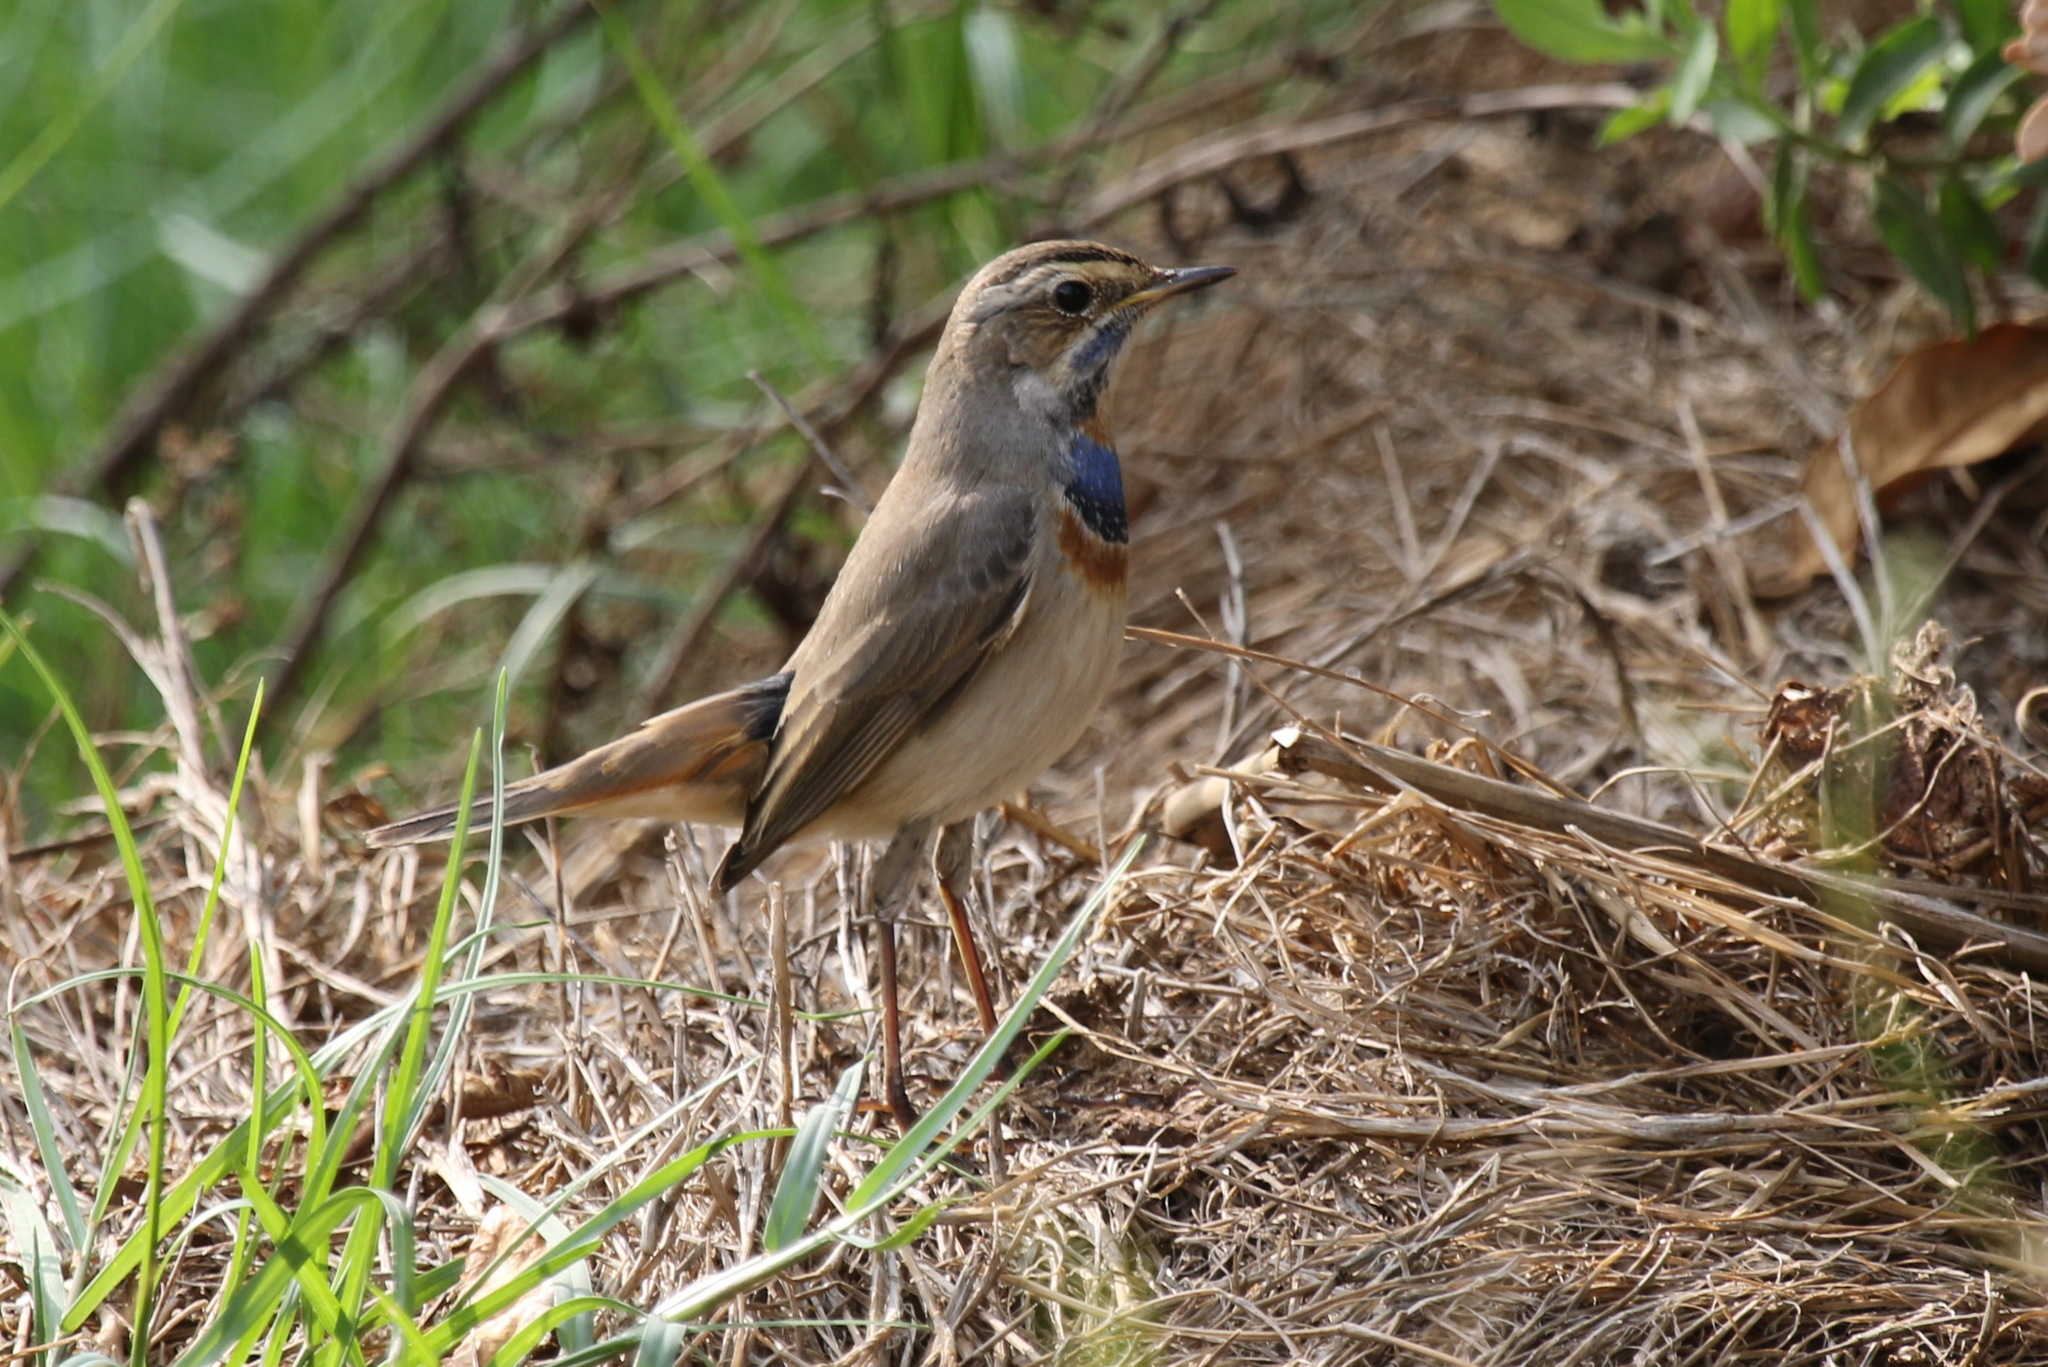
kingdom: Animalia
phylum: Chordata
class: Aves
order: Passeriformes
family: Muscicapidae
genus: Luscinia
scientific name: Luscinia svecica
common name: Bluethroat
